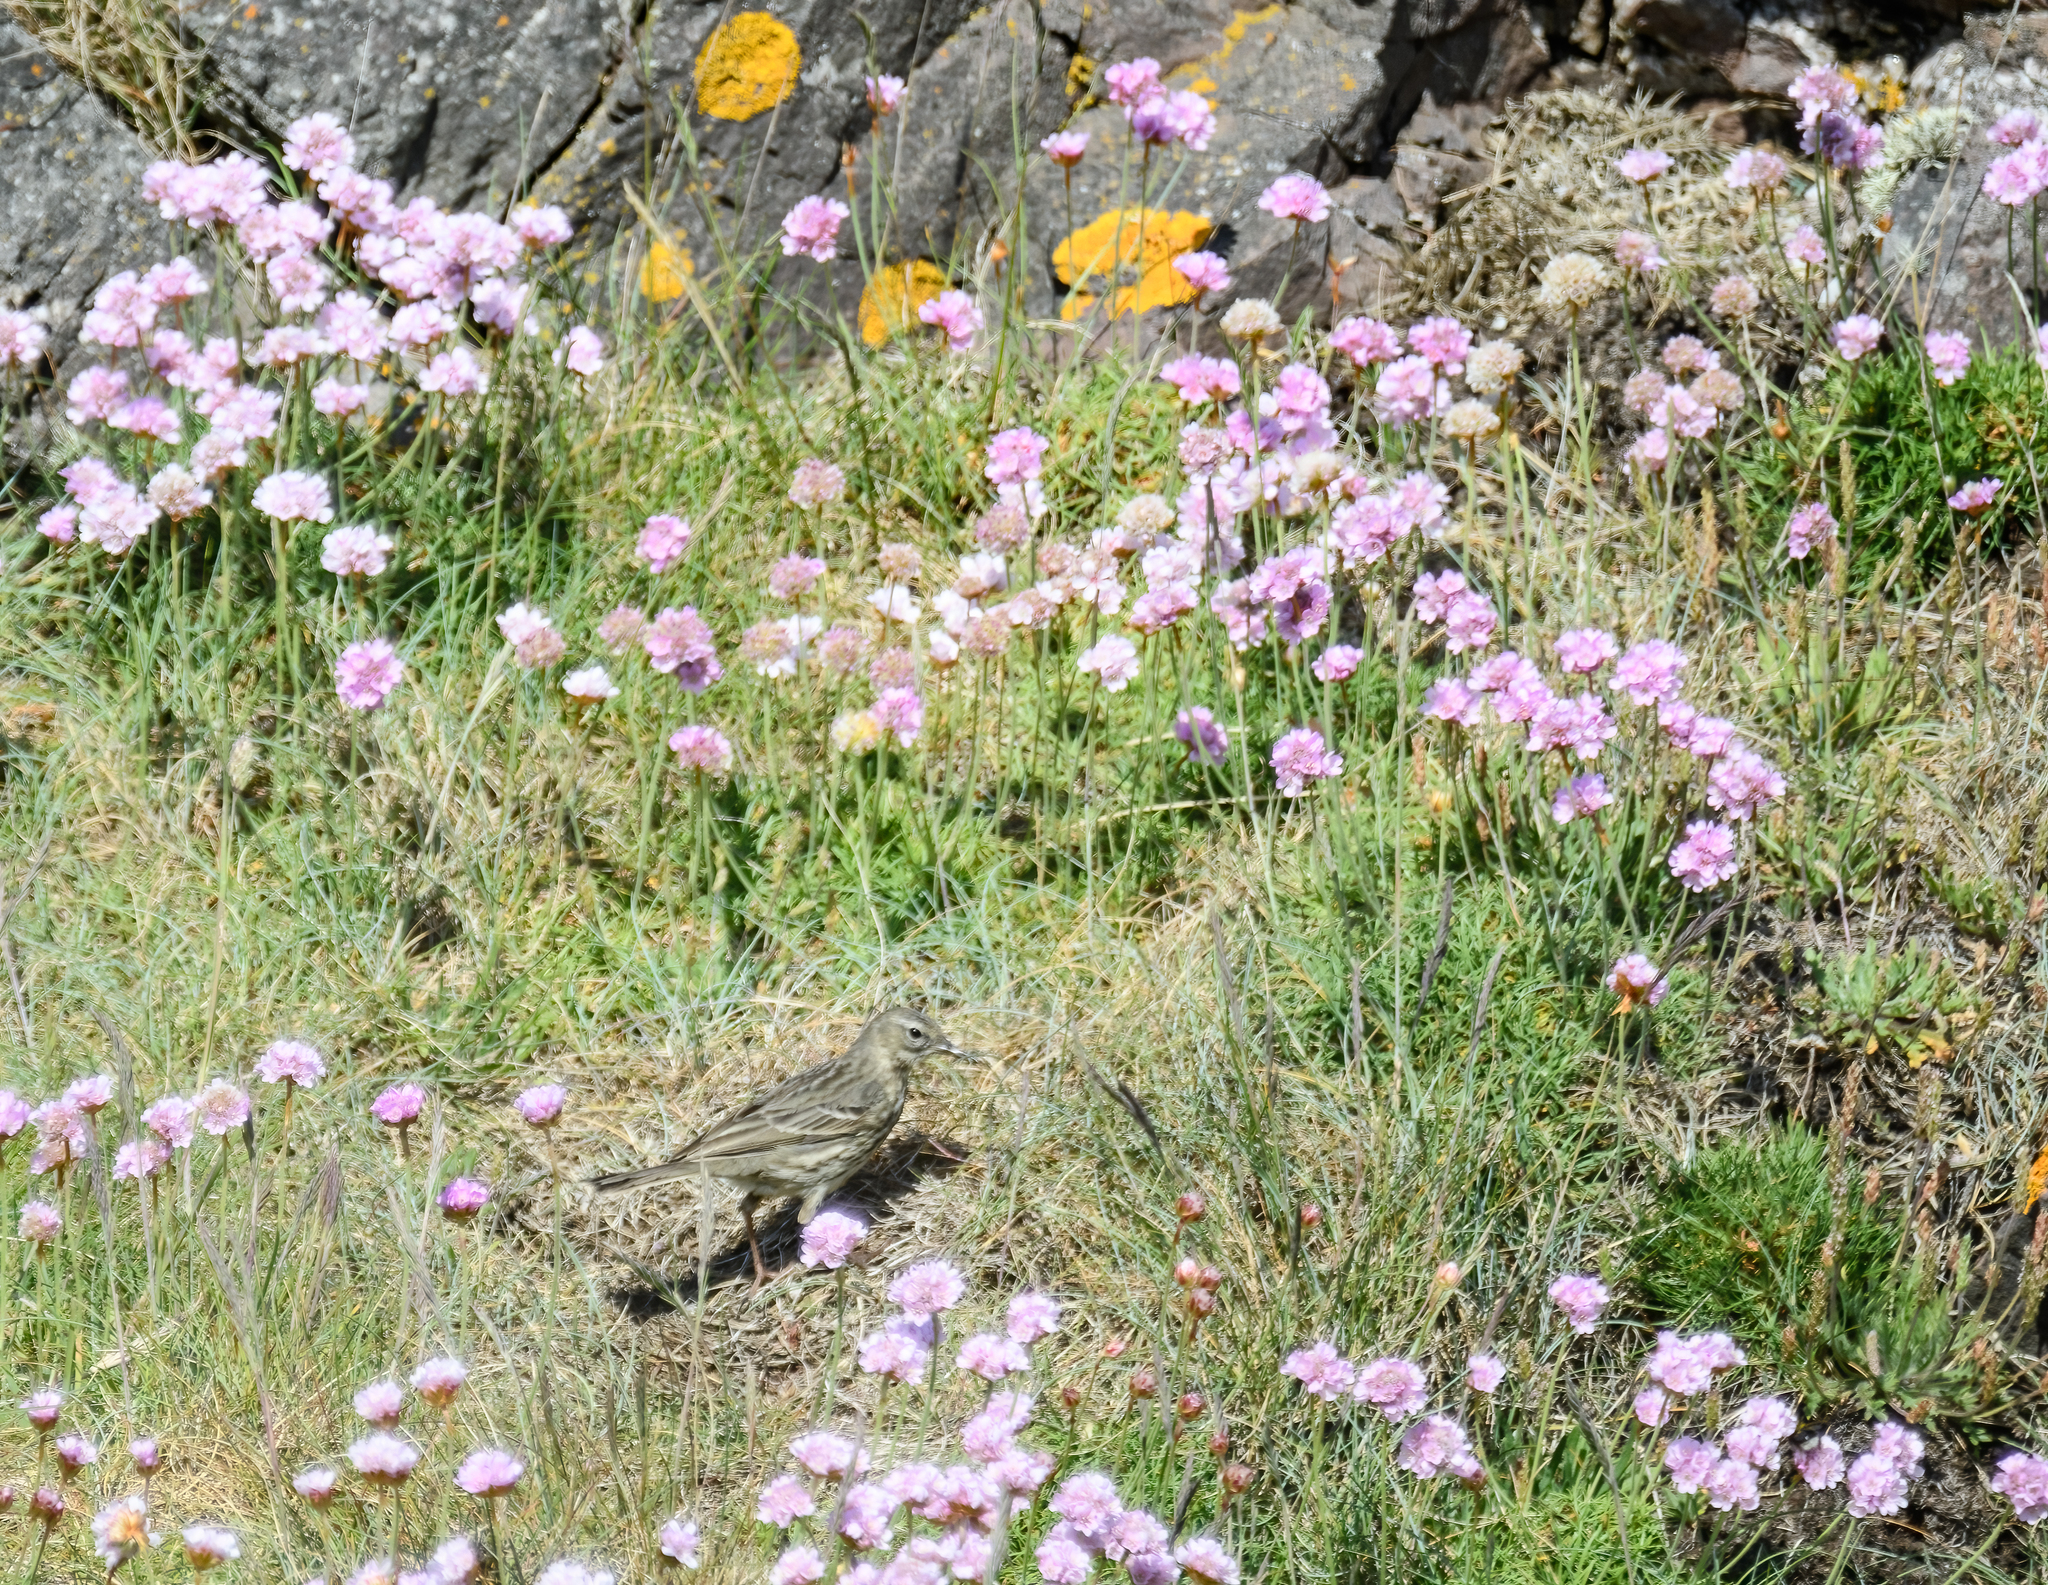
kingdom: Animalia
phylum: Chordata
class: Aves
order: Passeriformes
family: Motacillidae
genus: Anthus
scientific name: Anthus petrosus
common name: Eurasian rock pipit
